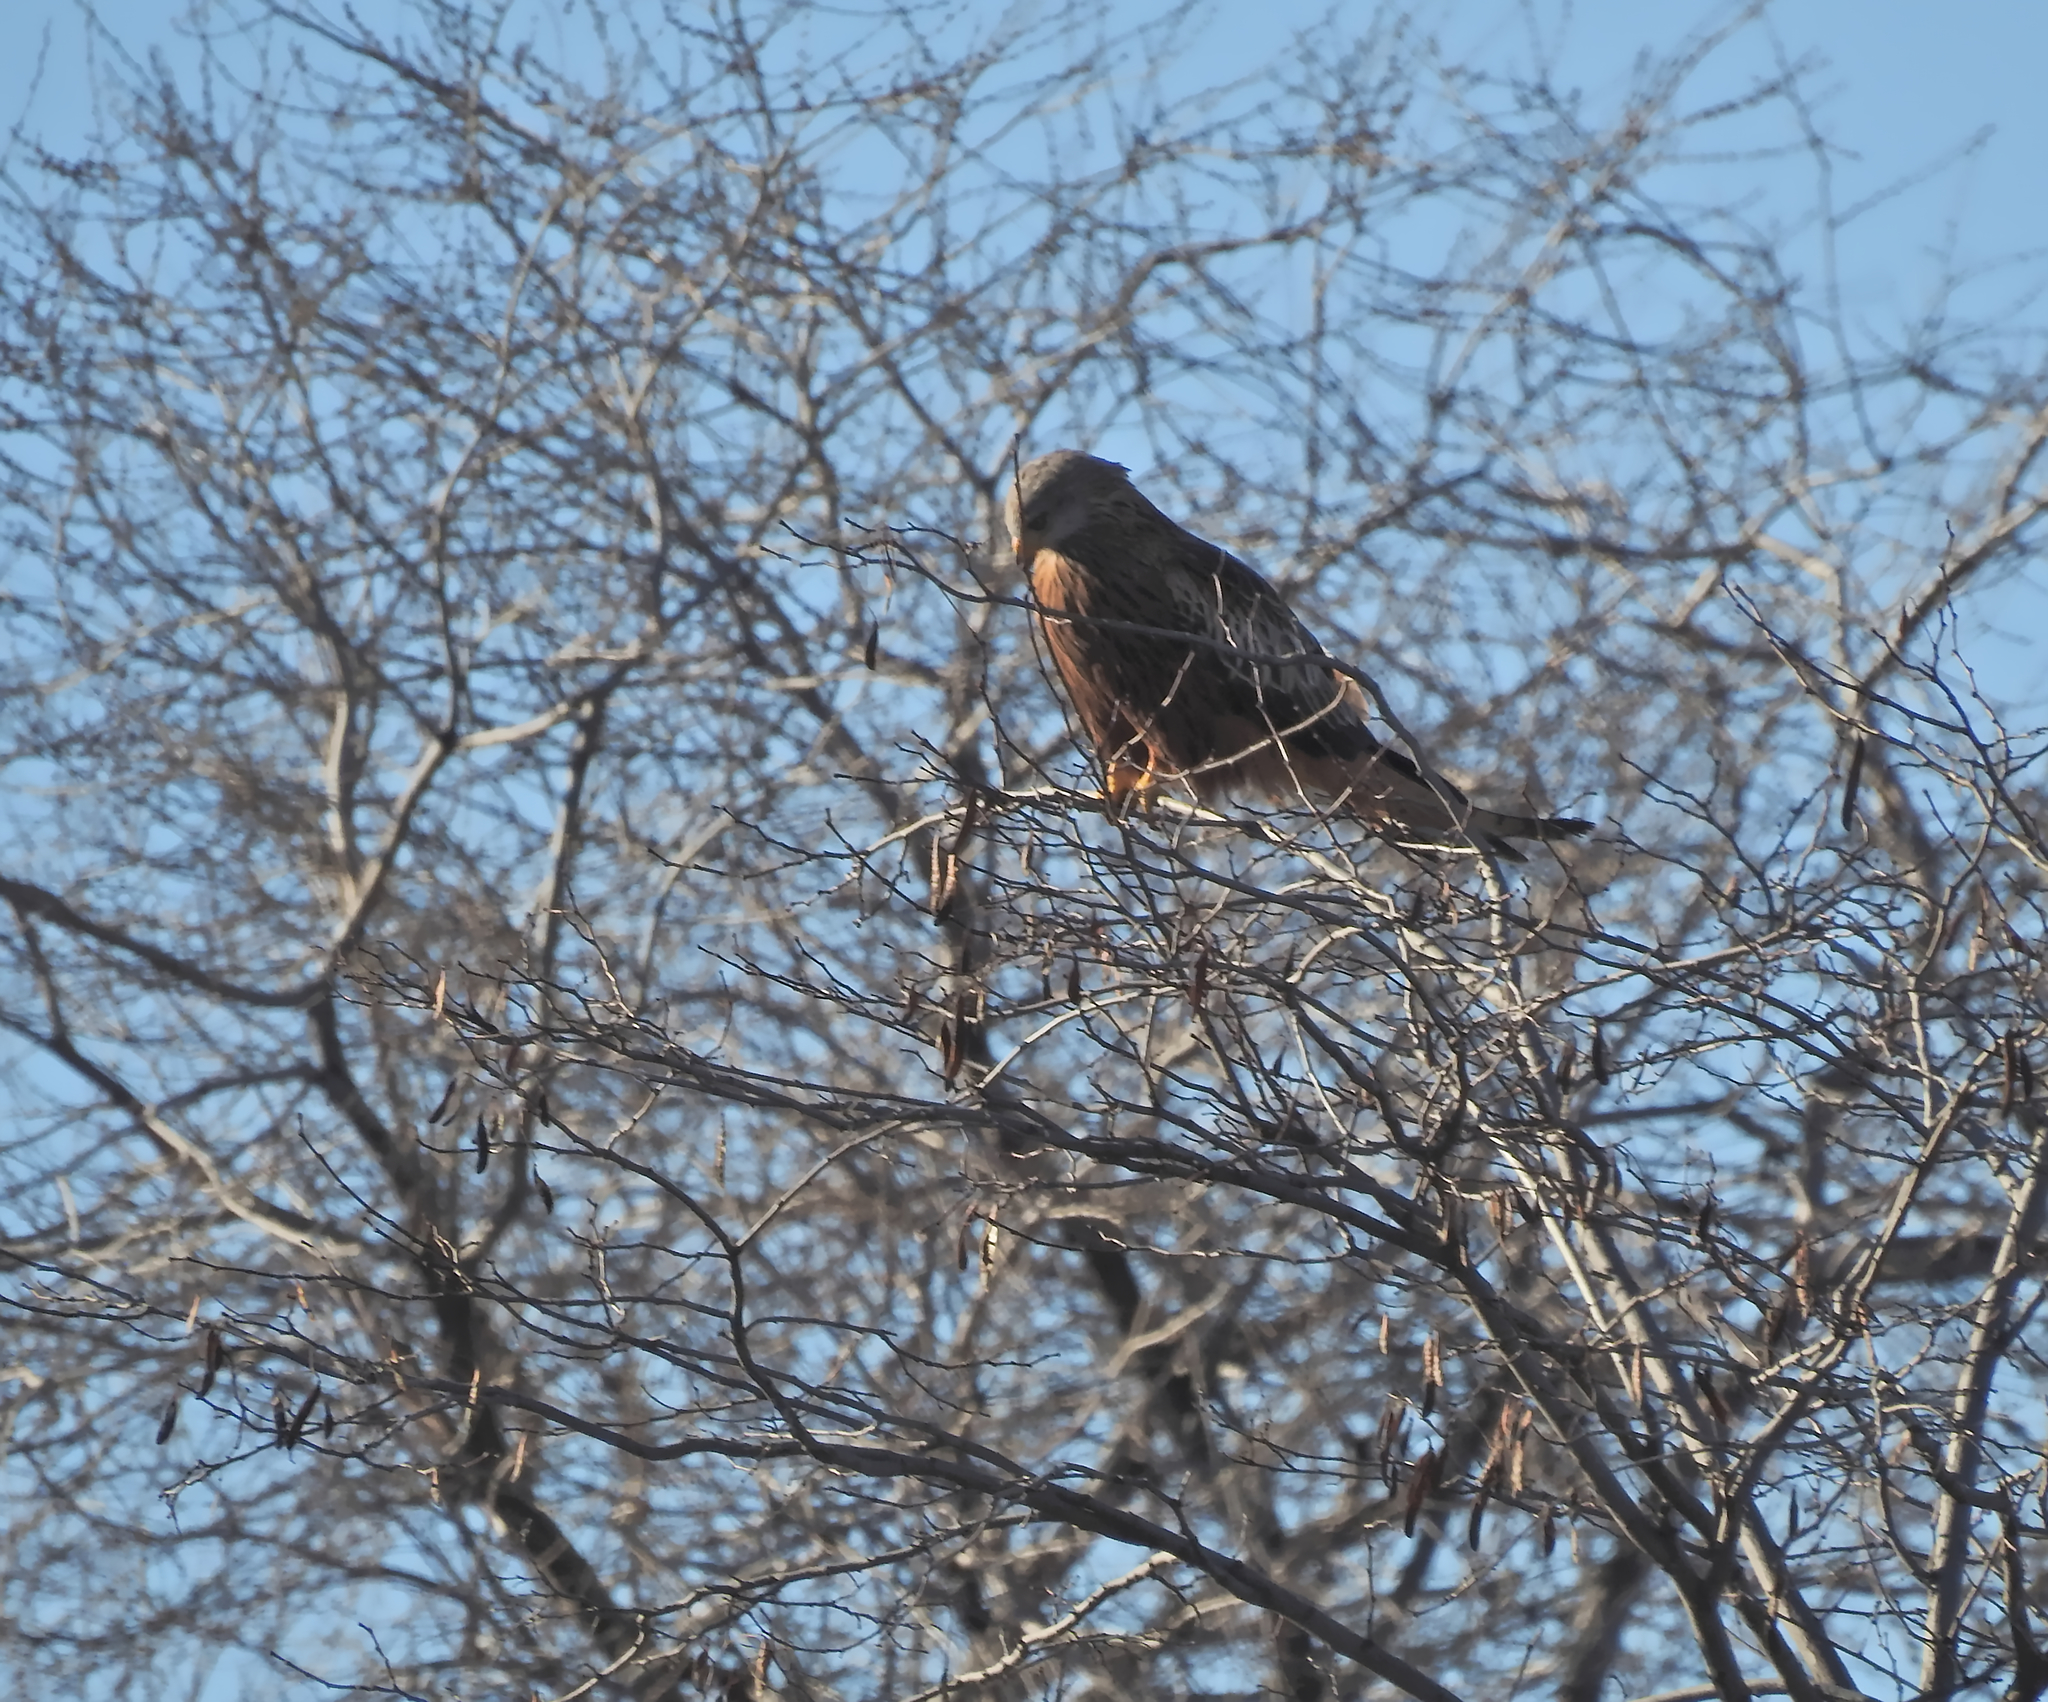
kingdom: Animalia
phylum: Chordata
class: Aves
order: Accipitriformes
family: Accipitridae
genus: Milvus
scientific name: Milvus milvus
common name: Red kite
